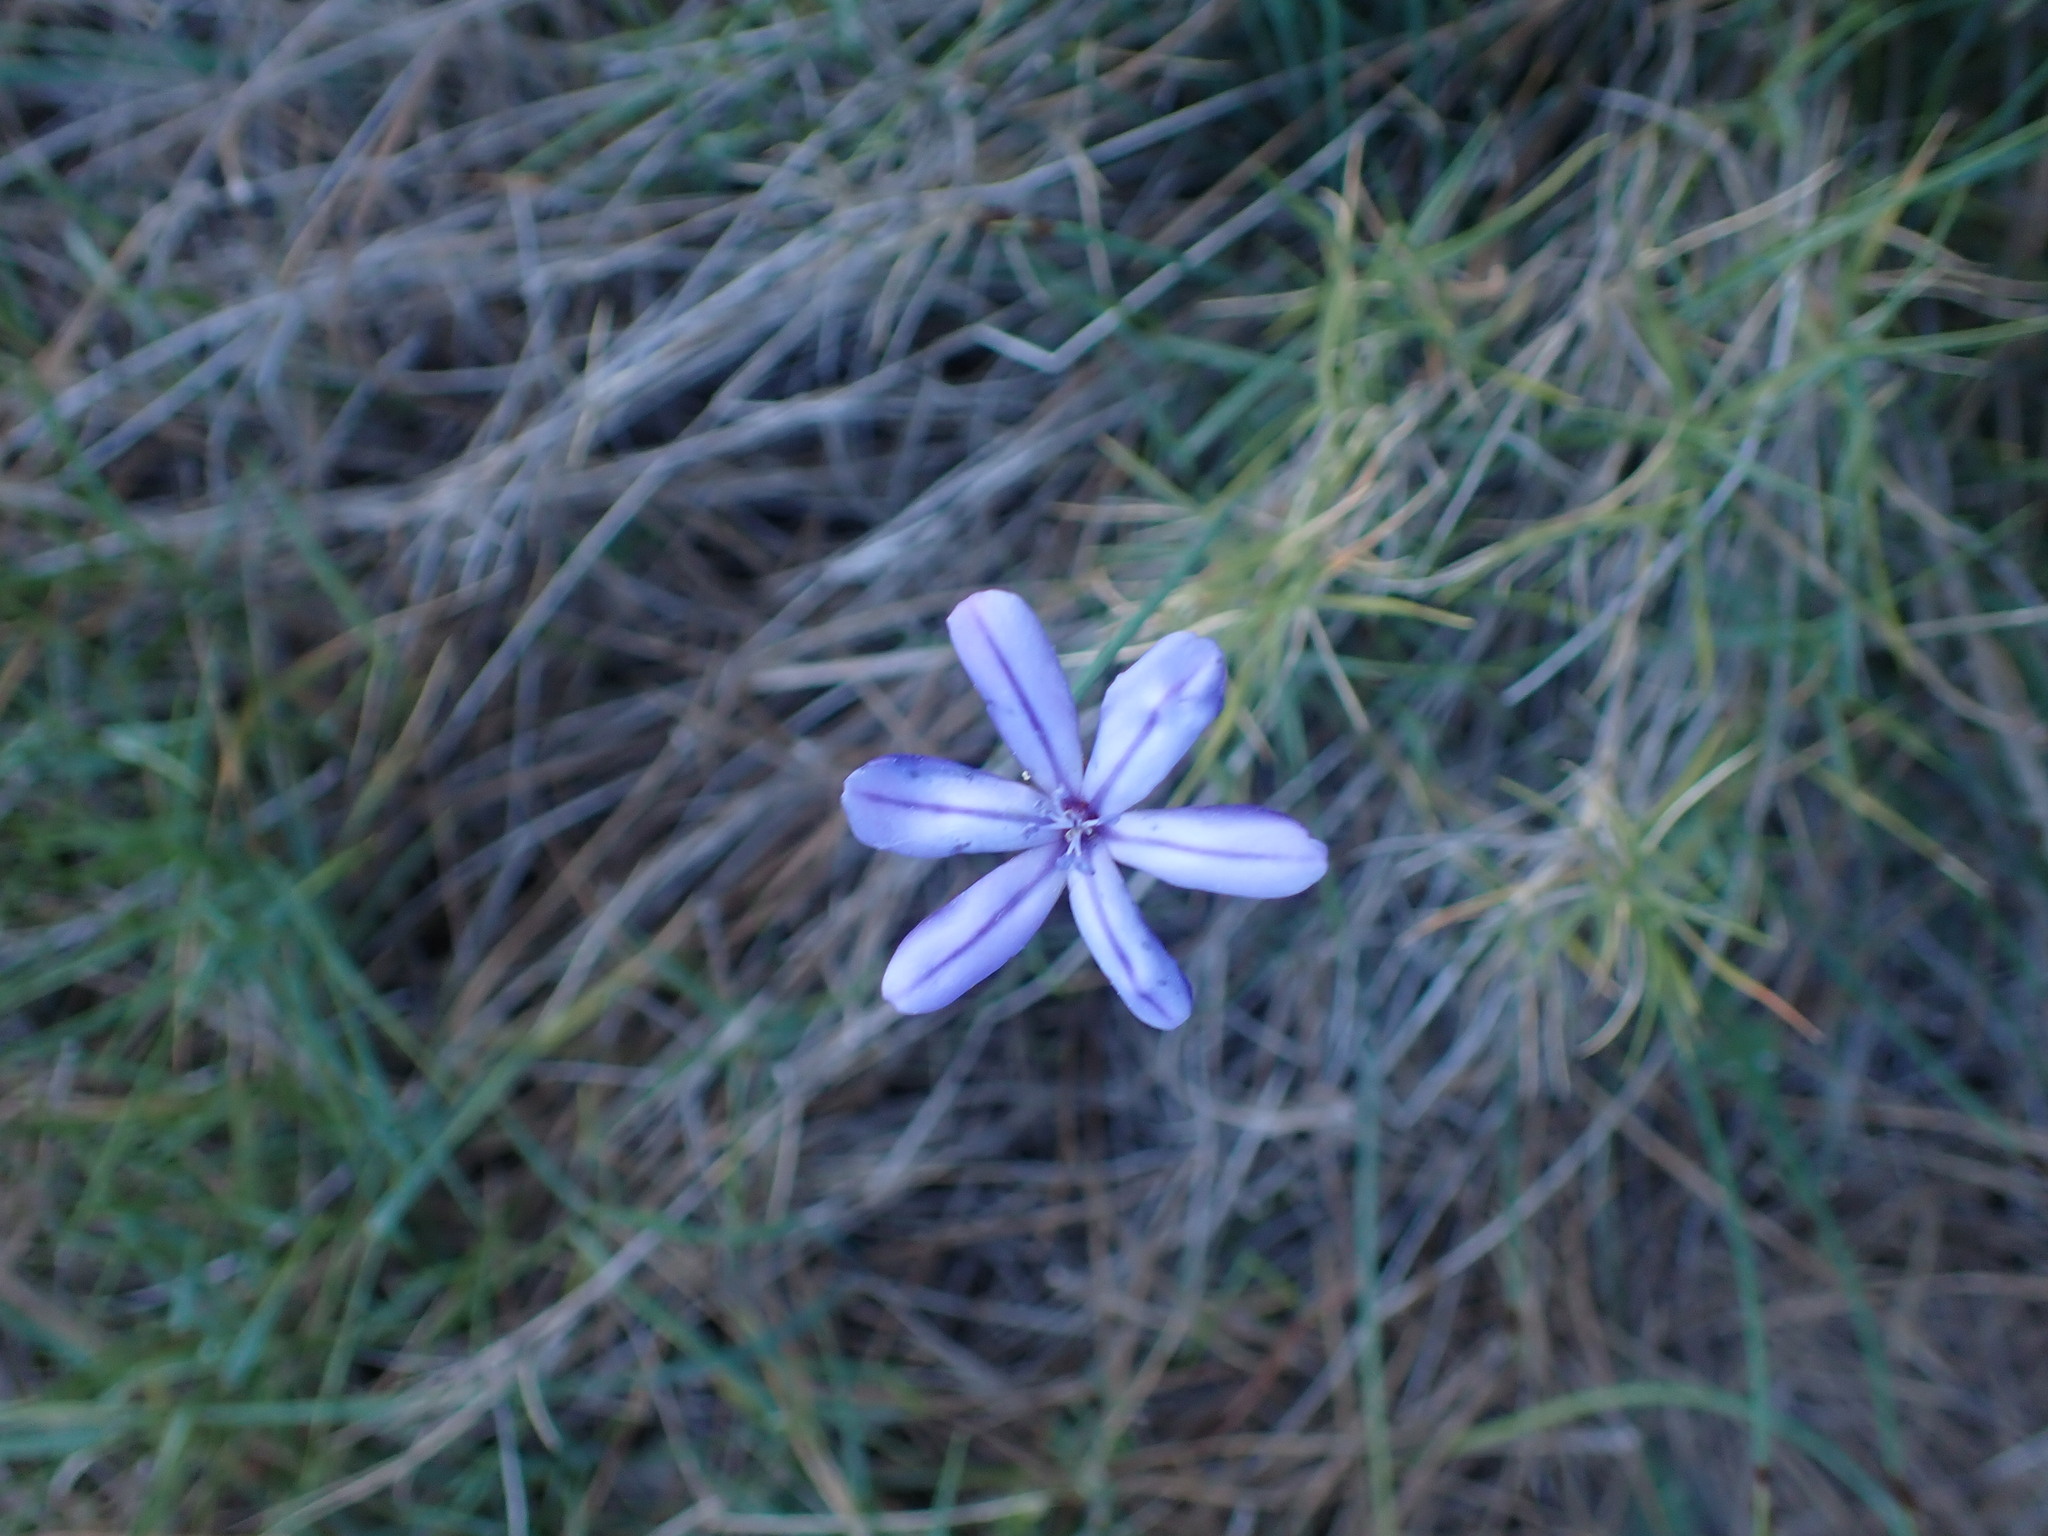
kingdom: Plantae
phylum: Tracheophyta
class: Liliopsida
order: Asparagales
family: Asparagaceae
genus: Aphyllanthes
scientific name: Aphyllanthes monspeliensis
